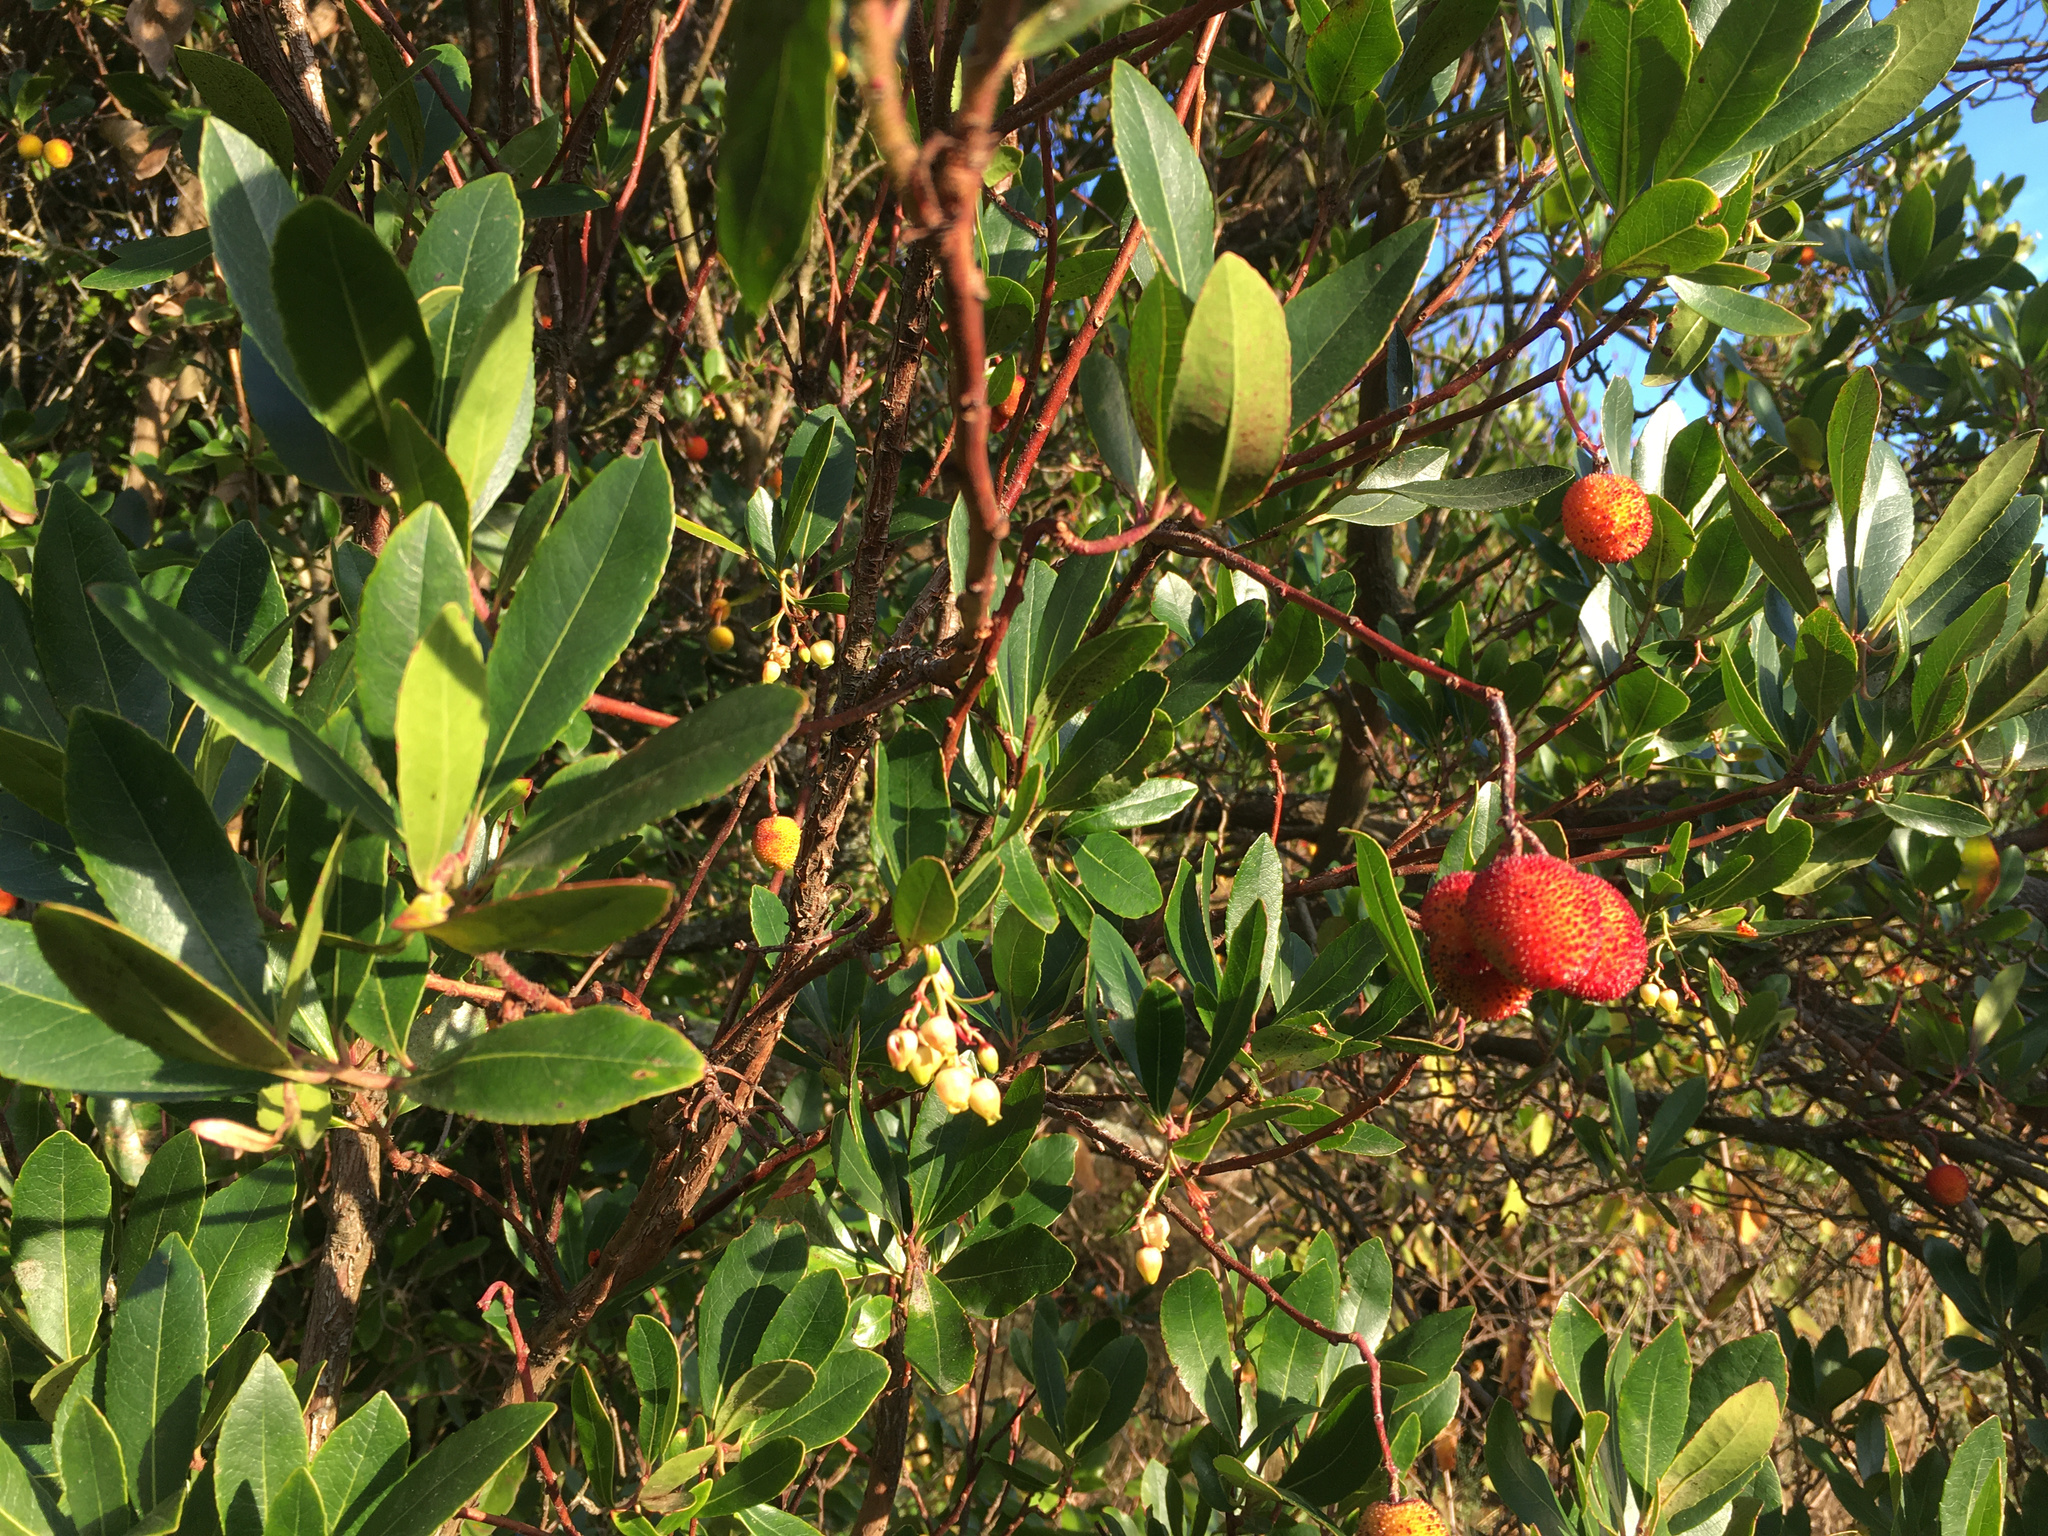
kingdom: Plantae
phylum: Tracheophyta
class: Magnoliopsida
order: Ericales
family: Ericaceae
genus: Arbutus
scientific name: Arbutus unedo
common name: Strawberry-tree
